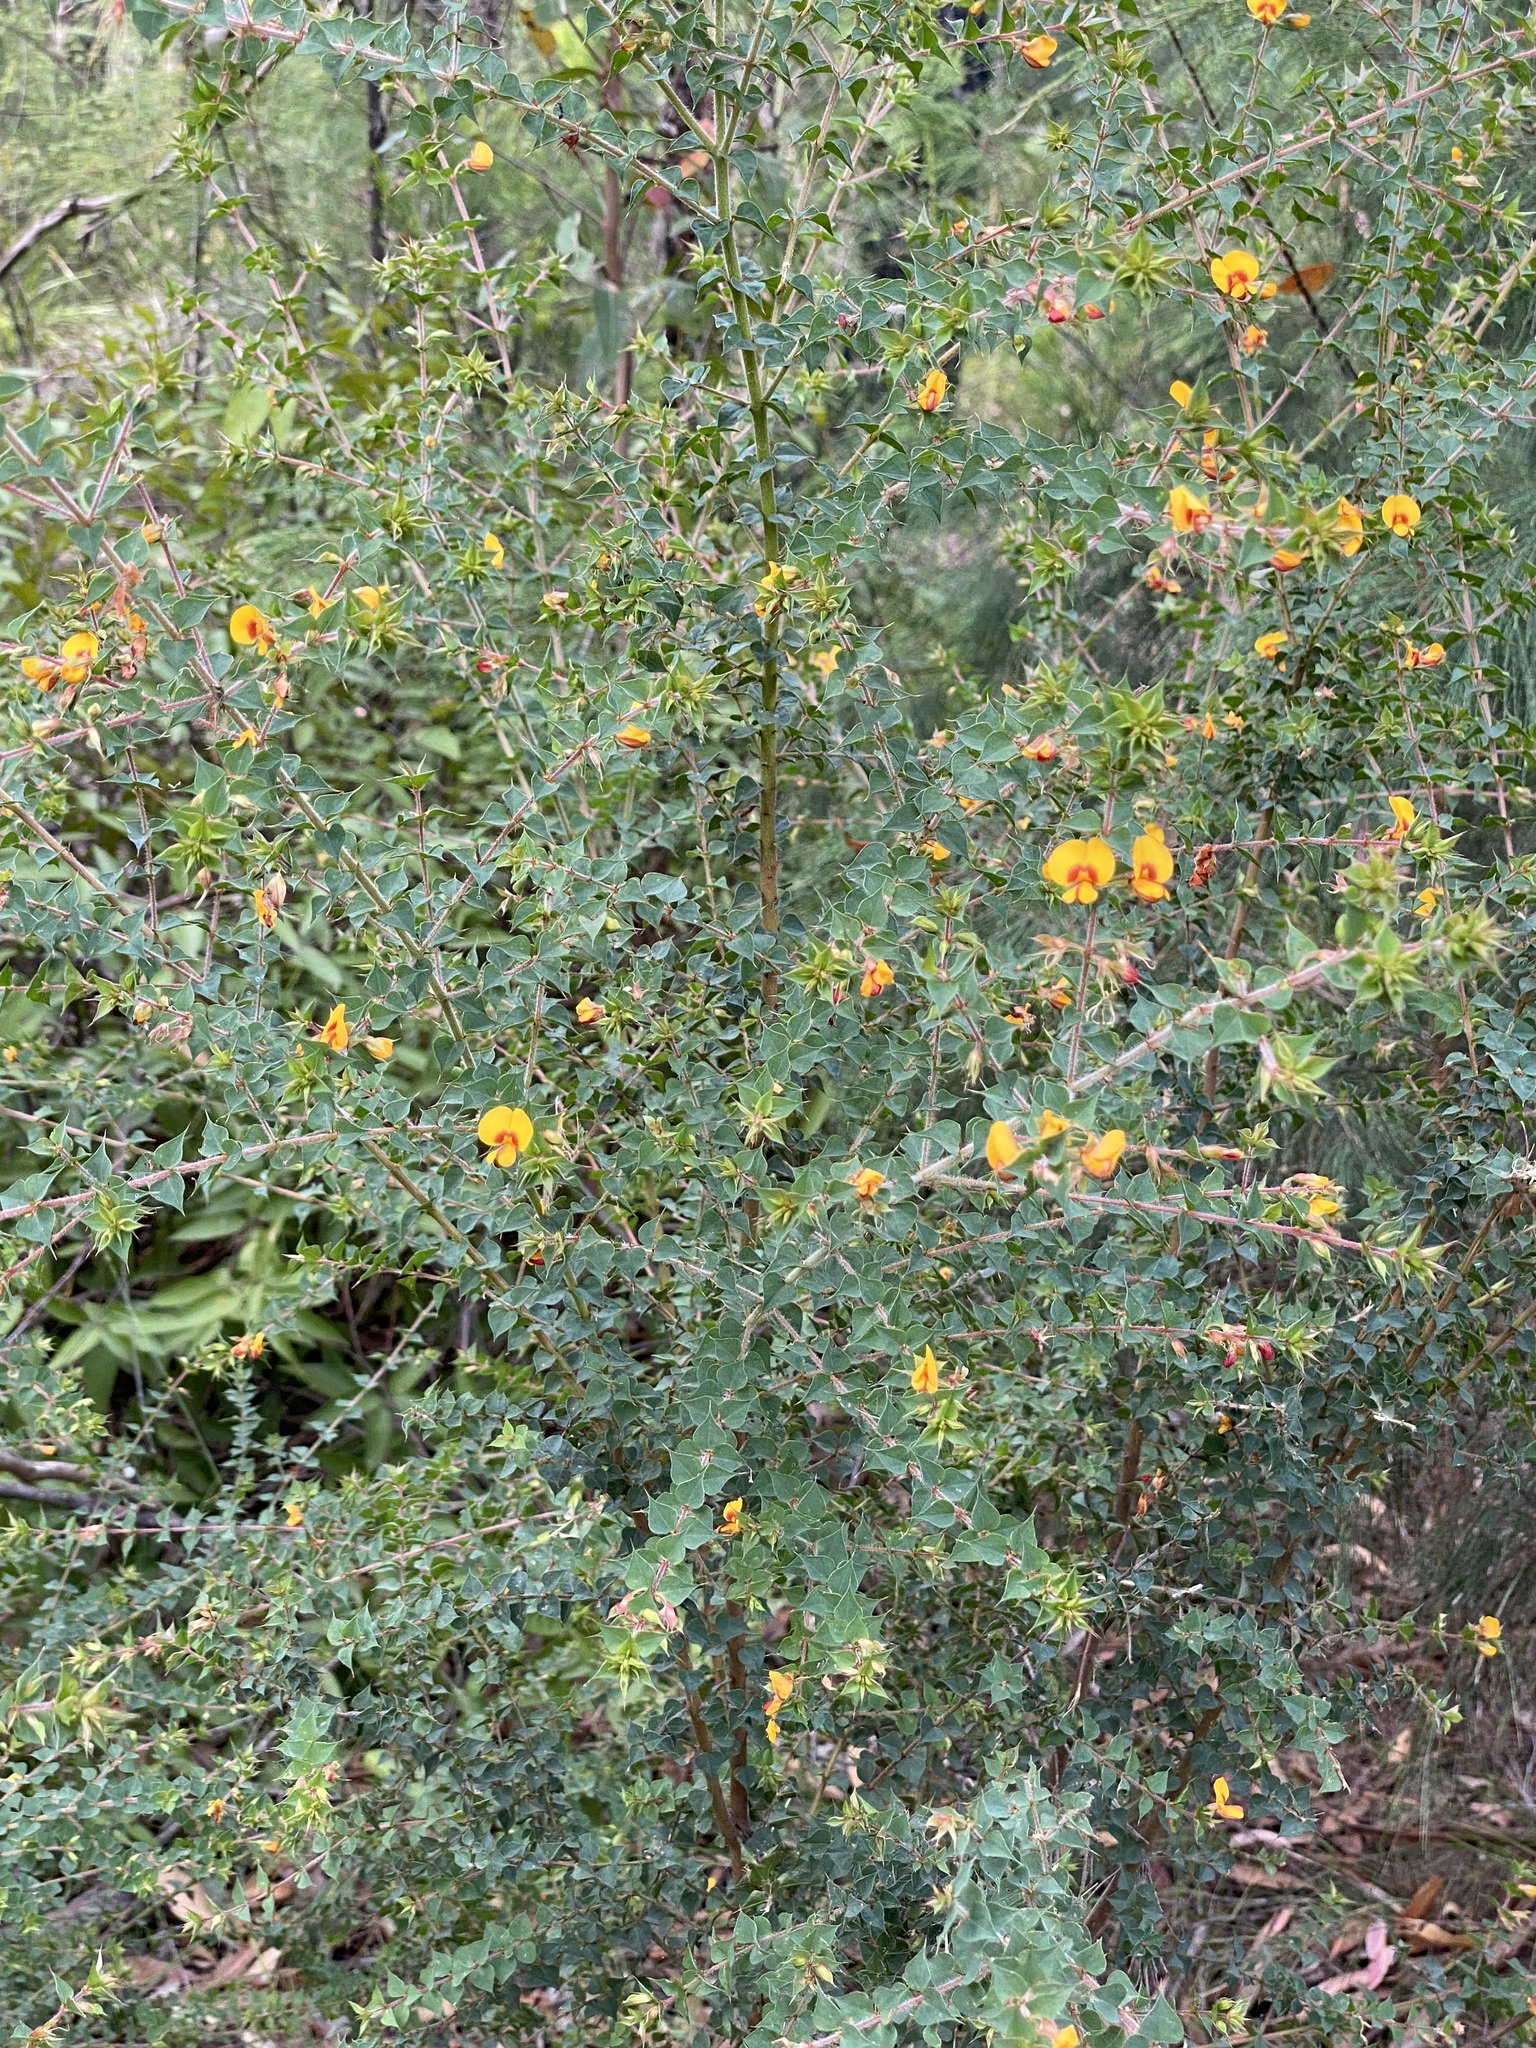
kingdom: Plantae
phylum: Tracheophyta
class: Magnoliopsida
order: Fabales
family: Fabaceae
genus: Pultenaea
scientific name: Pultenaea spinosa
